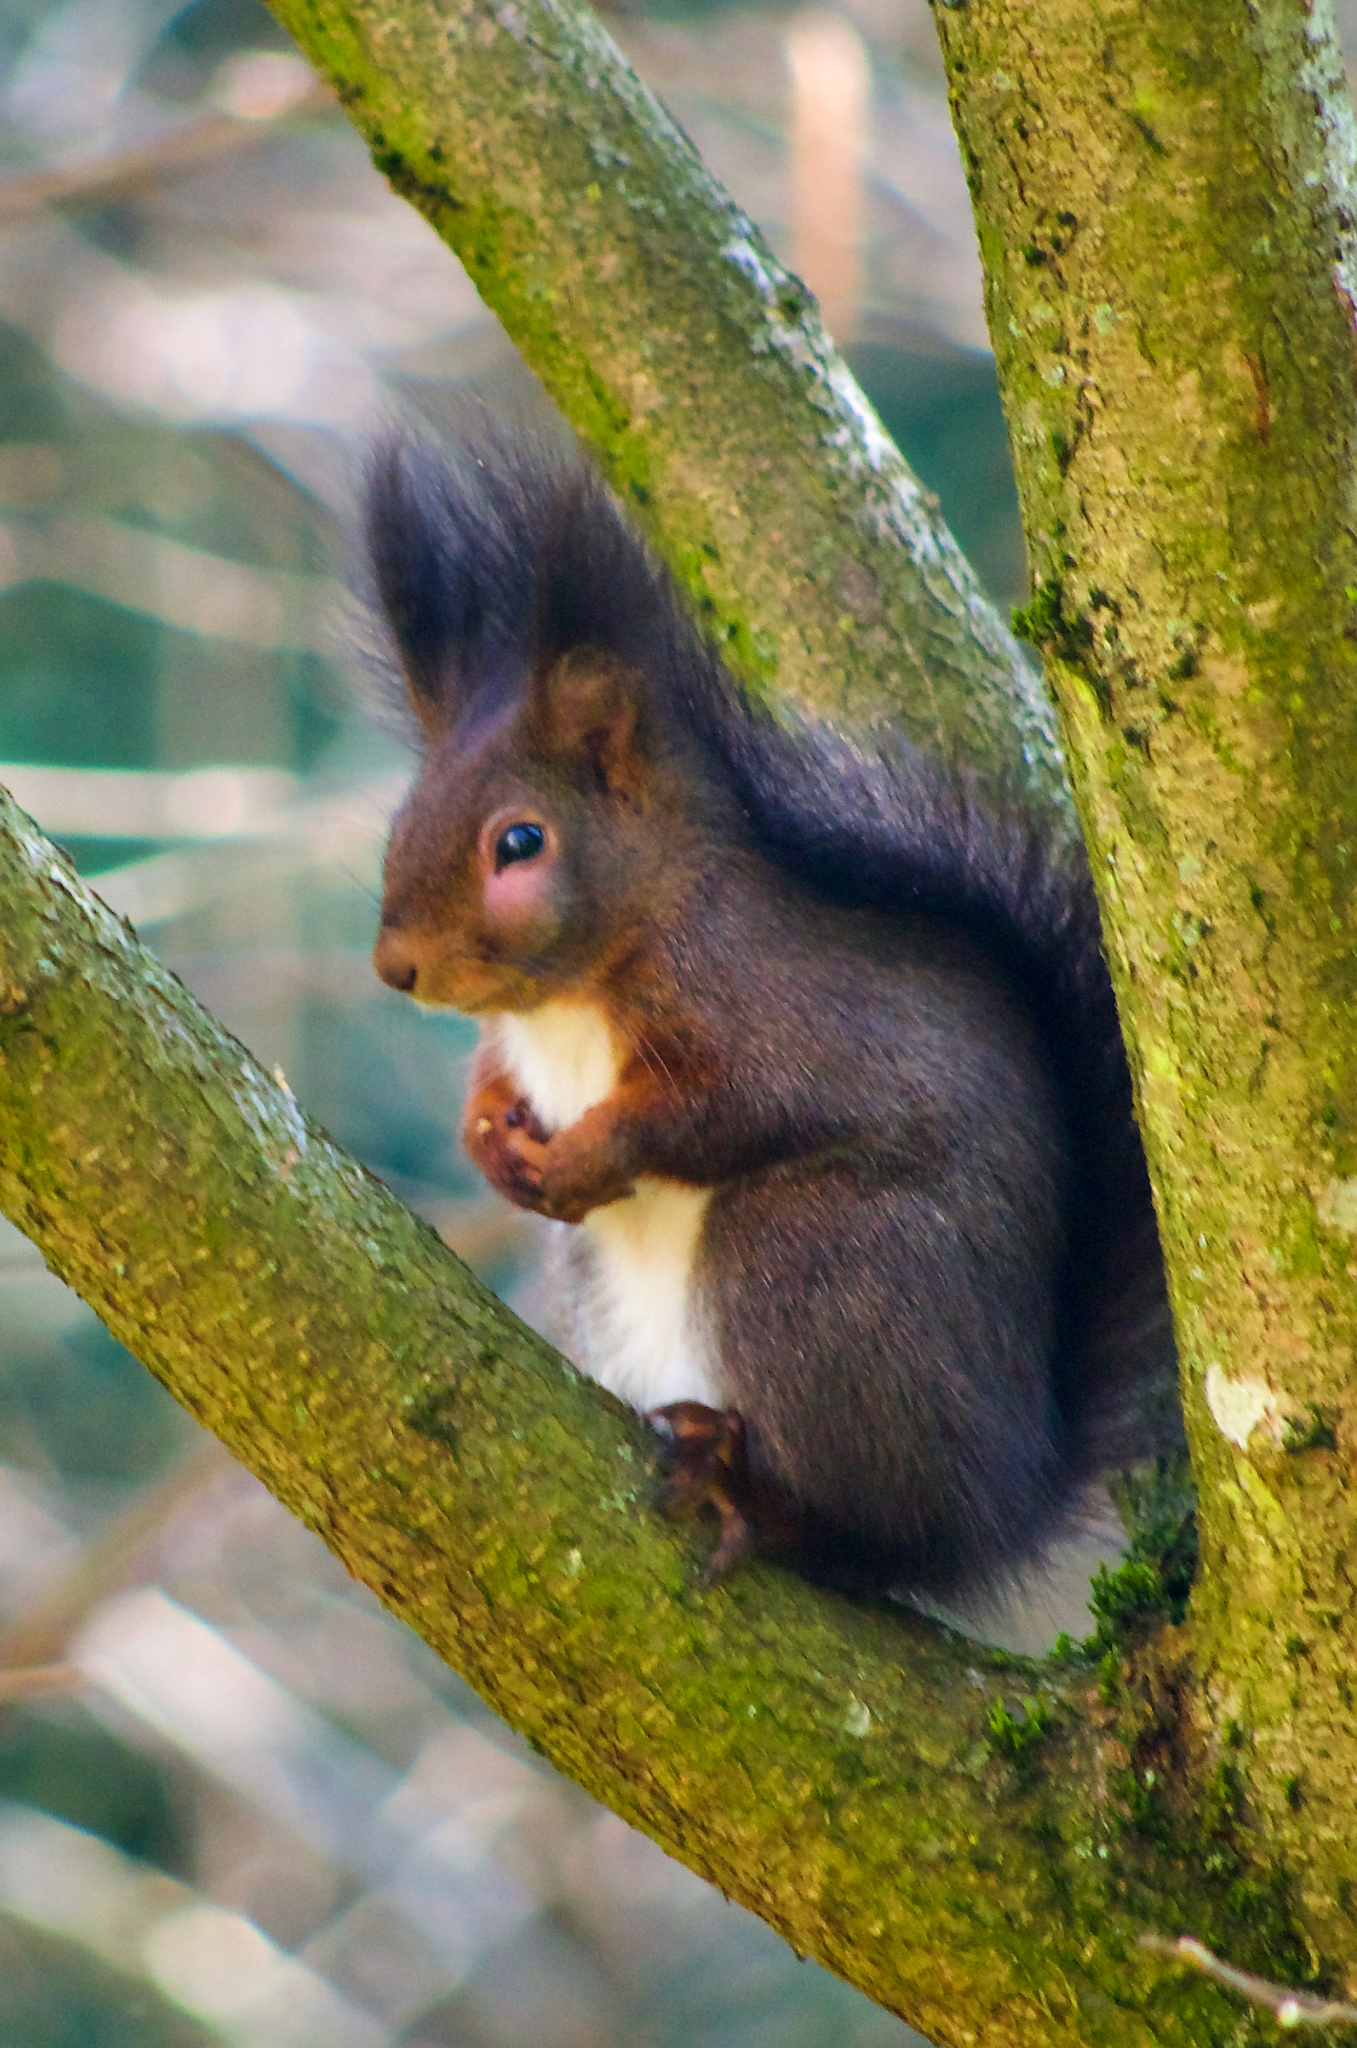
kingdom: Animalia
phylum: Chordata
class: Mammalia
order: Rodentia
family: Sciuridae
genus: Sciurus
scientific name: Sciurus vulgaris
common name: Eurasian red squirrel
